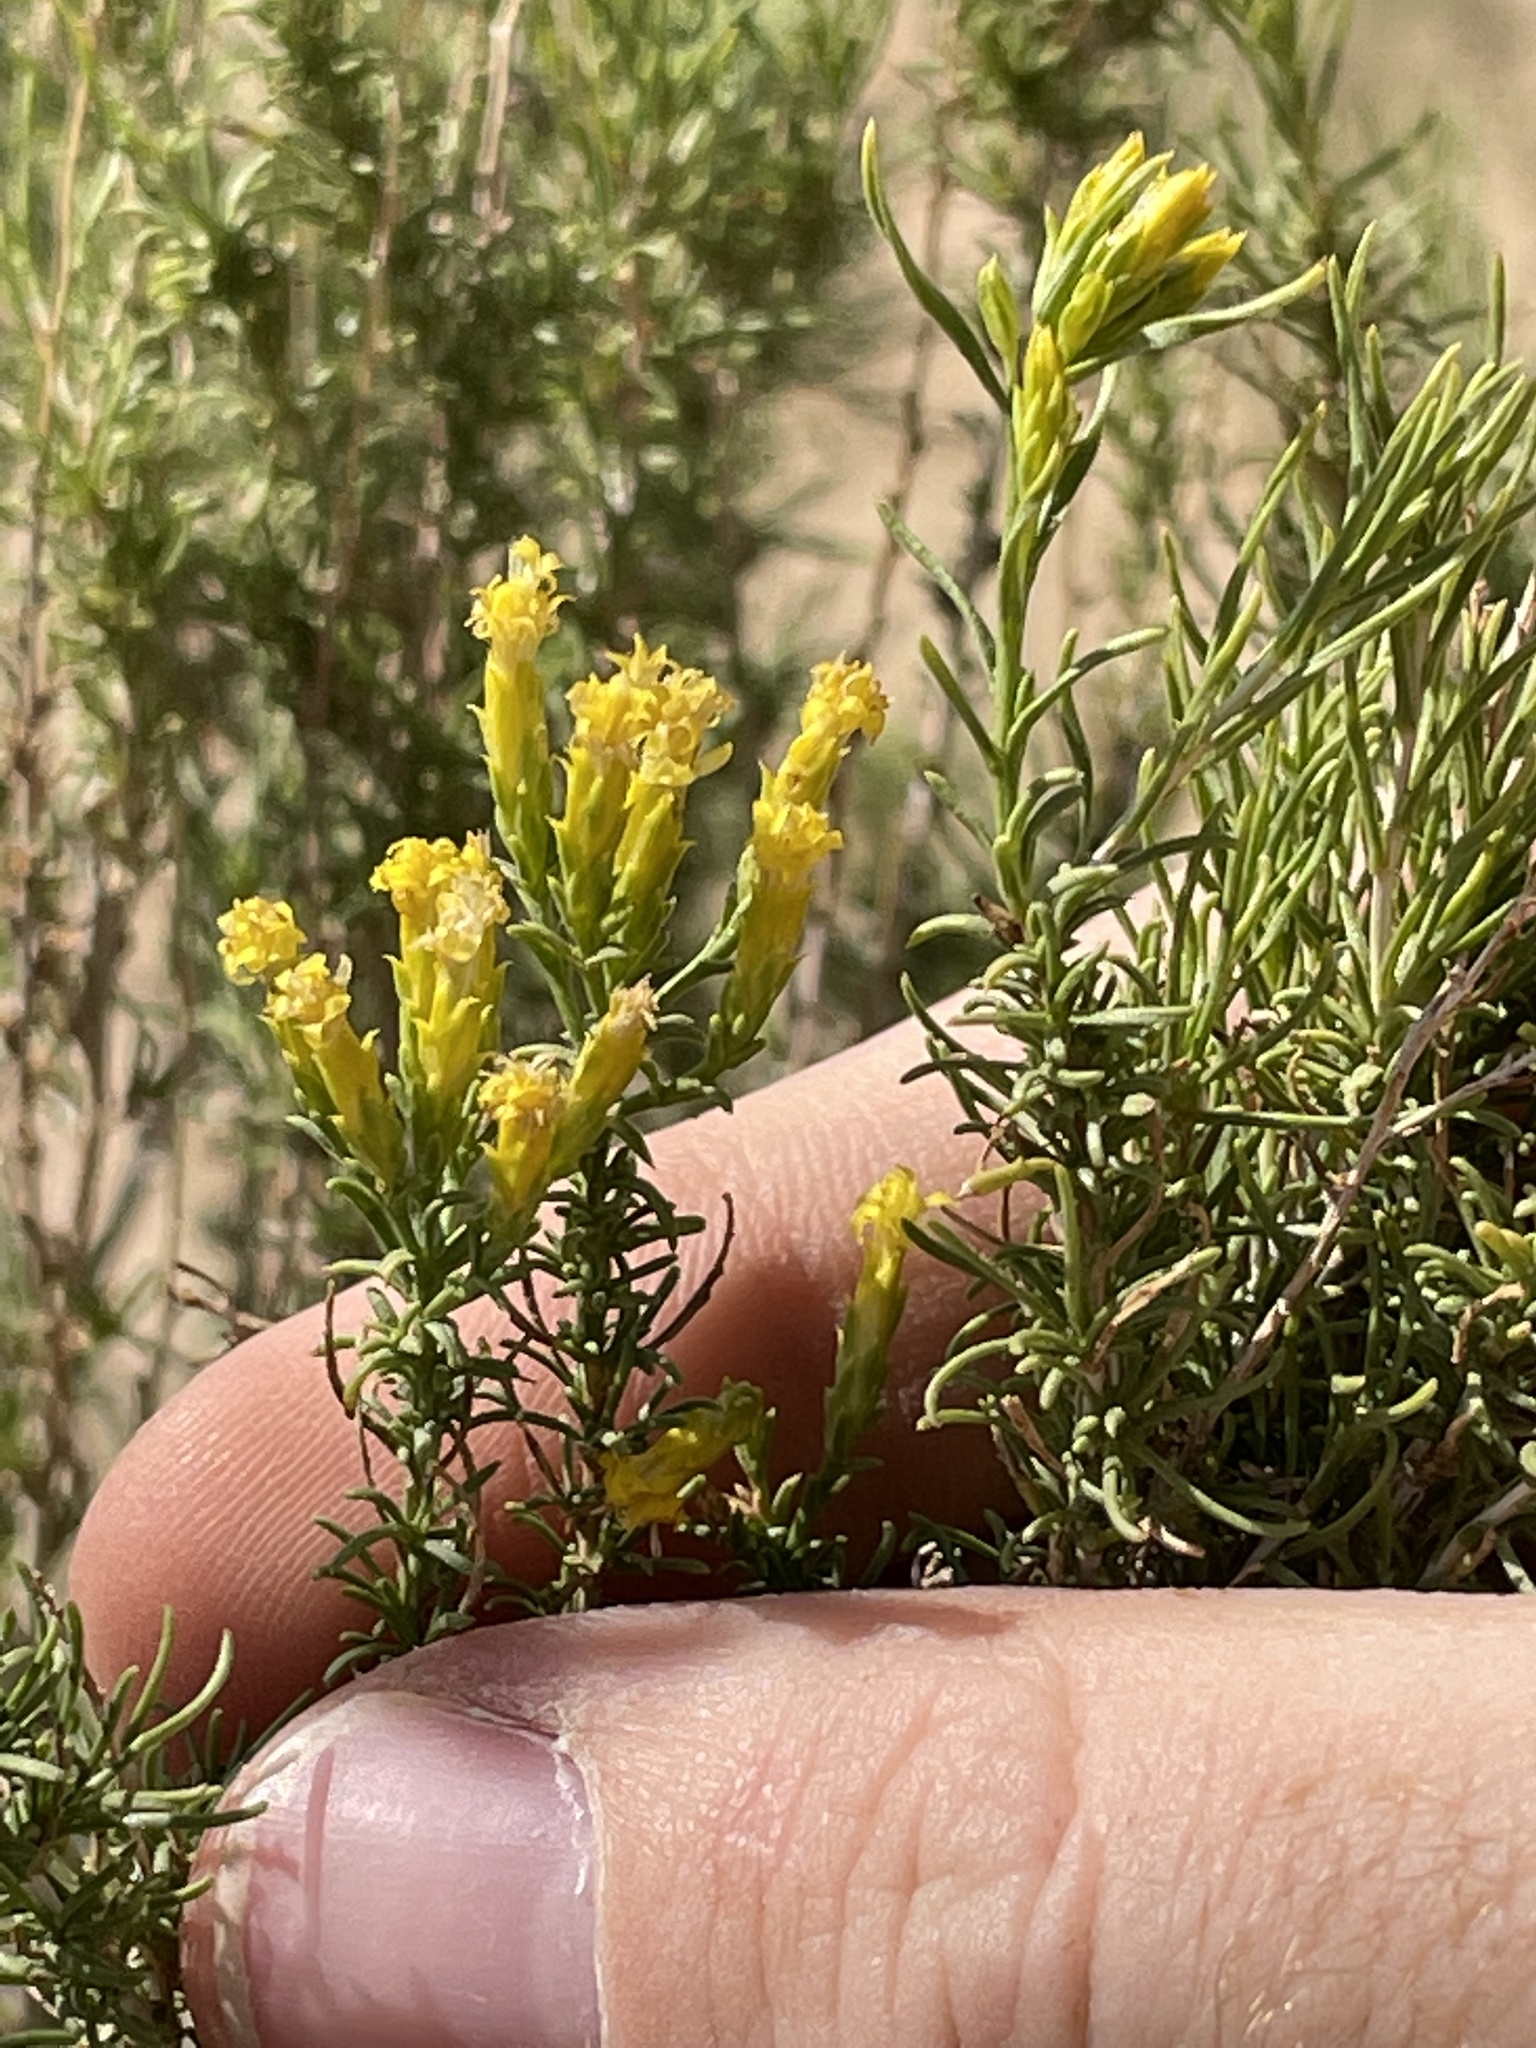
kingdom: Plantae
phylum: Tracheophyta
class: Magnoliopsida
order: Asterales
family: Asteraceae
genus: Chrysothamnus
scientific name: Chrysothamnus greenei
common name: Greene's rabbitbrush
